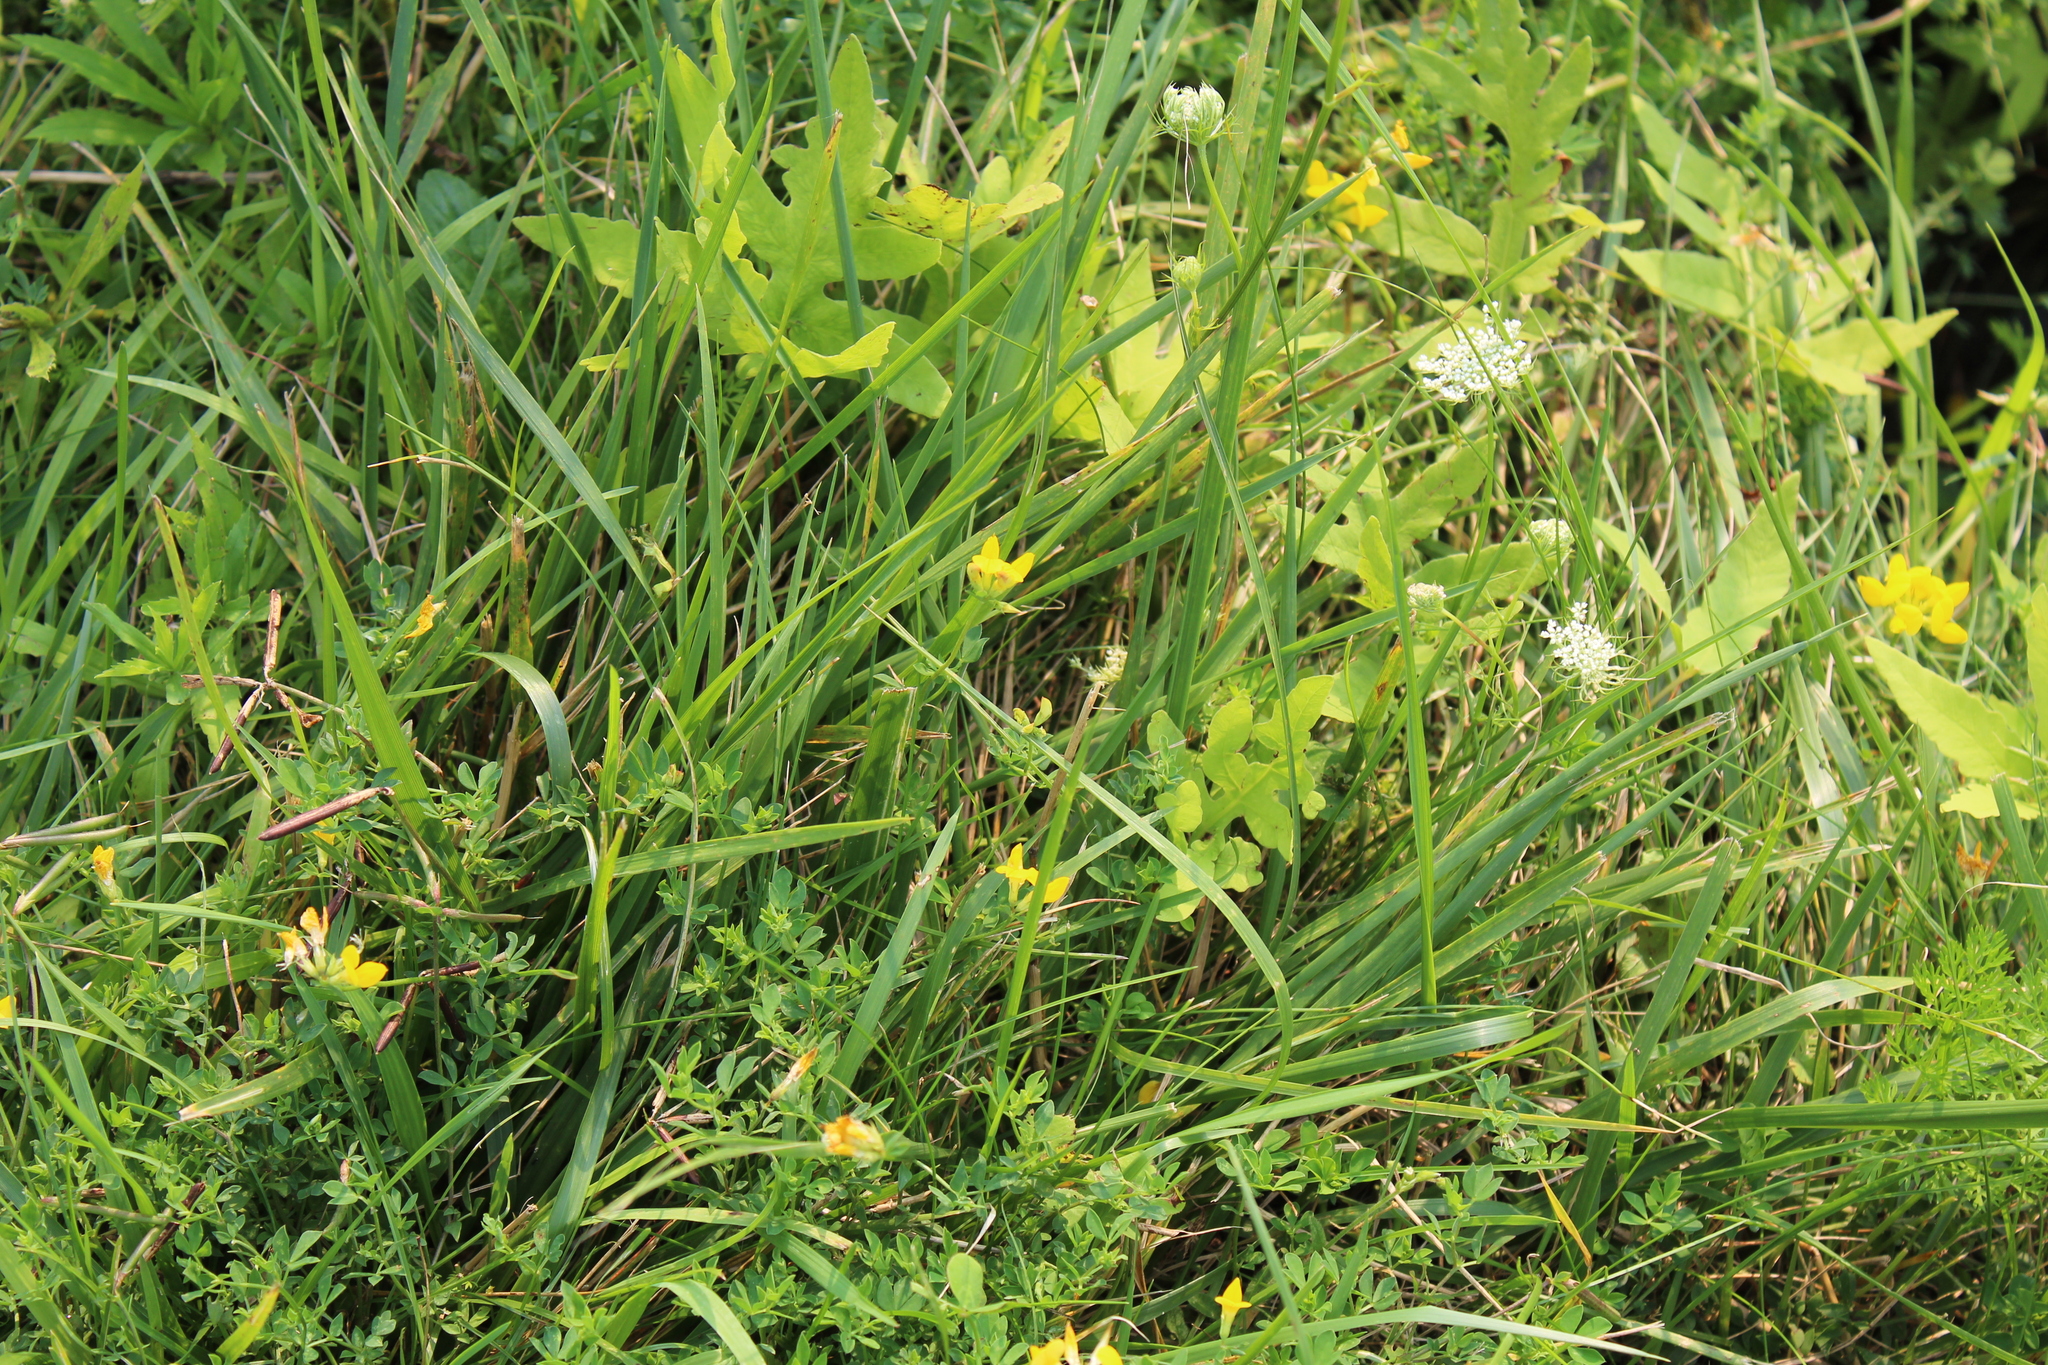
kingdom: Plantae
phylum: Tracheophyta
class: Magnoliopsida
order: Fabales
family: Fabaceae
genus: Lotus
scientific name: Lotus corniculatus
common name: Common bird's-foot-trefoil
